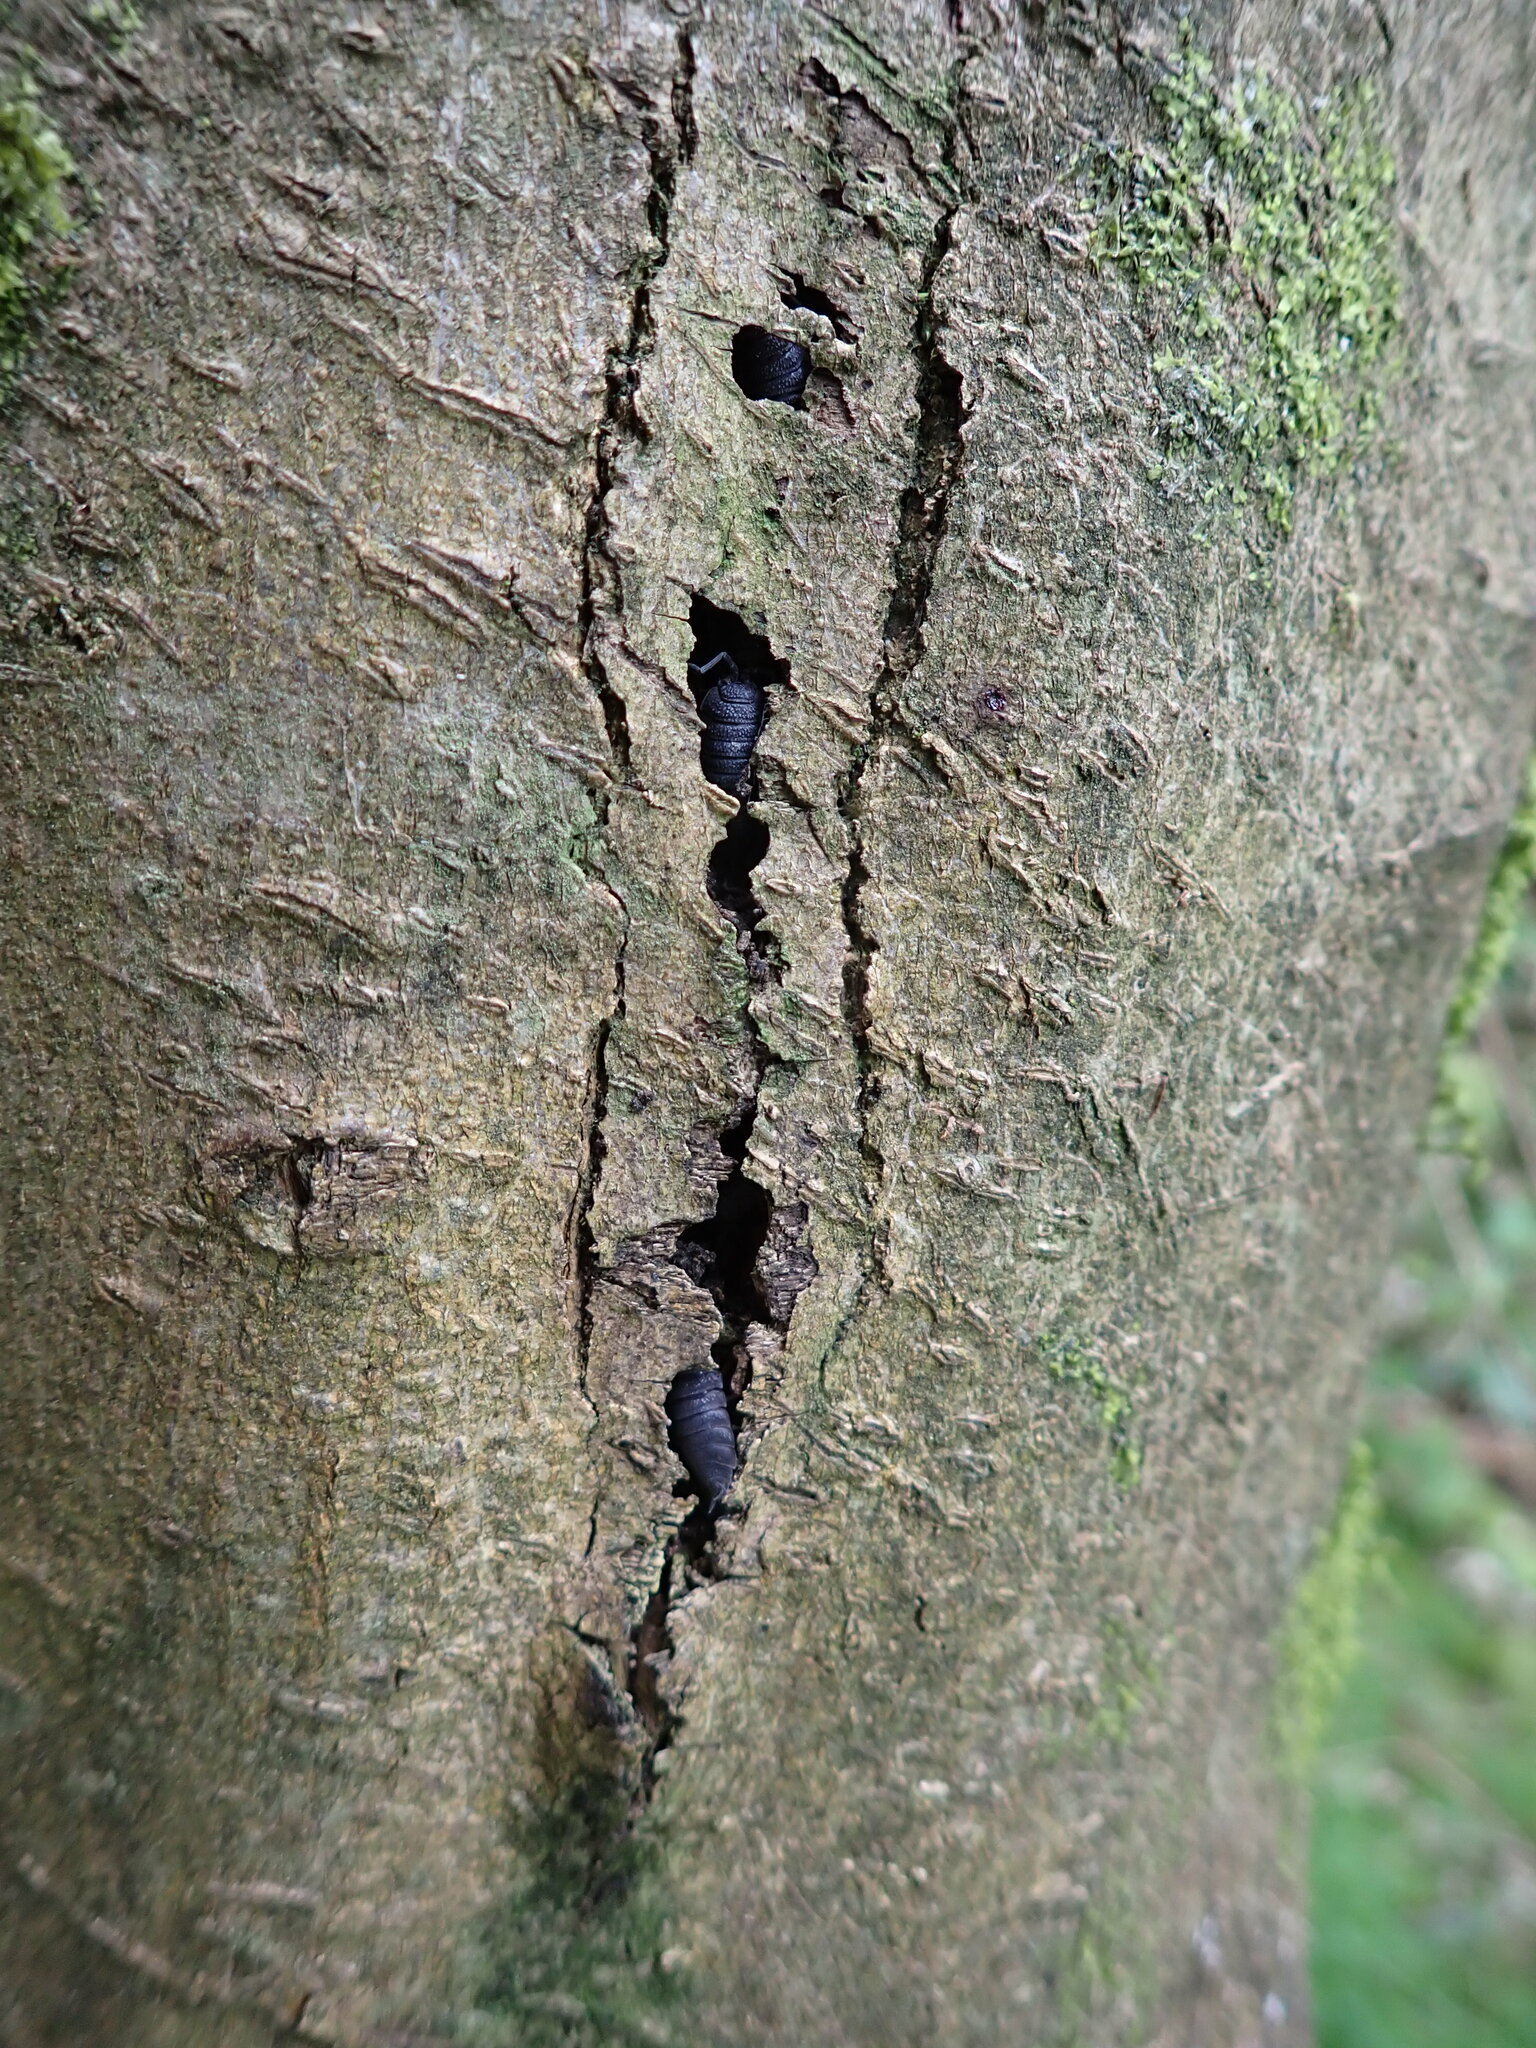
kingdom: Animalia
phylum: Arthropoda
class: Malacostraca
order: Isopoda
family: Porcellionidae
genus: Porcellio
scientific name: Porcellio scaber
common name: Common rough woodlouse
